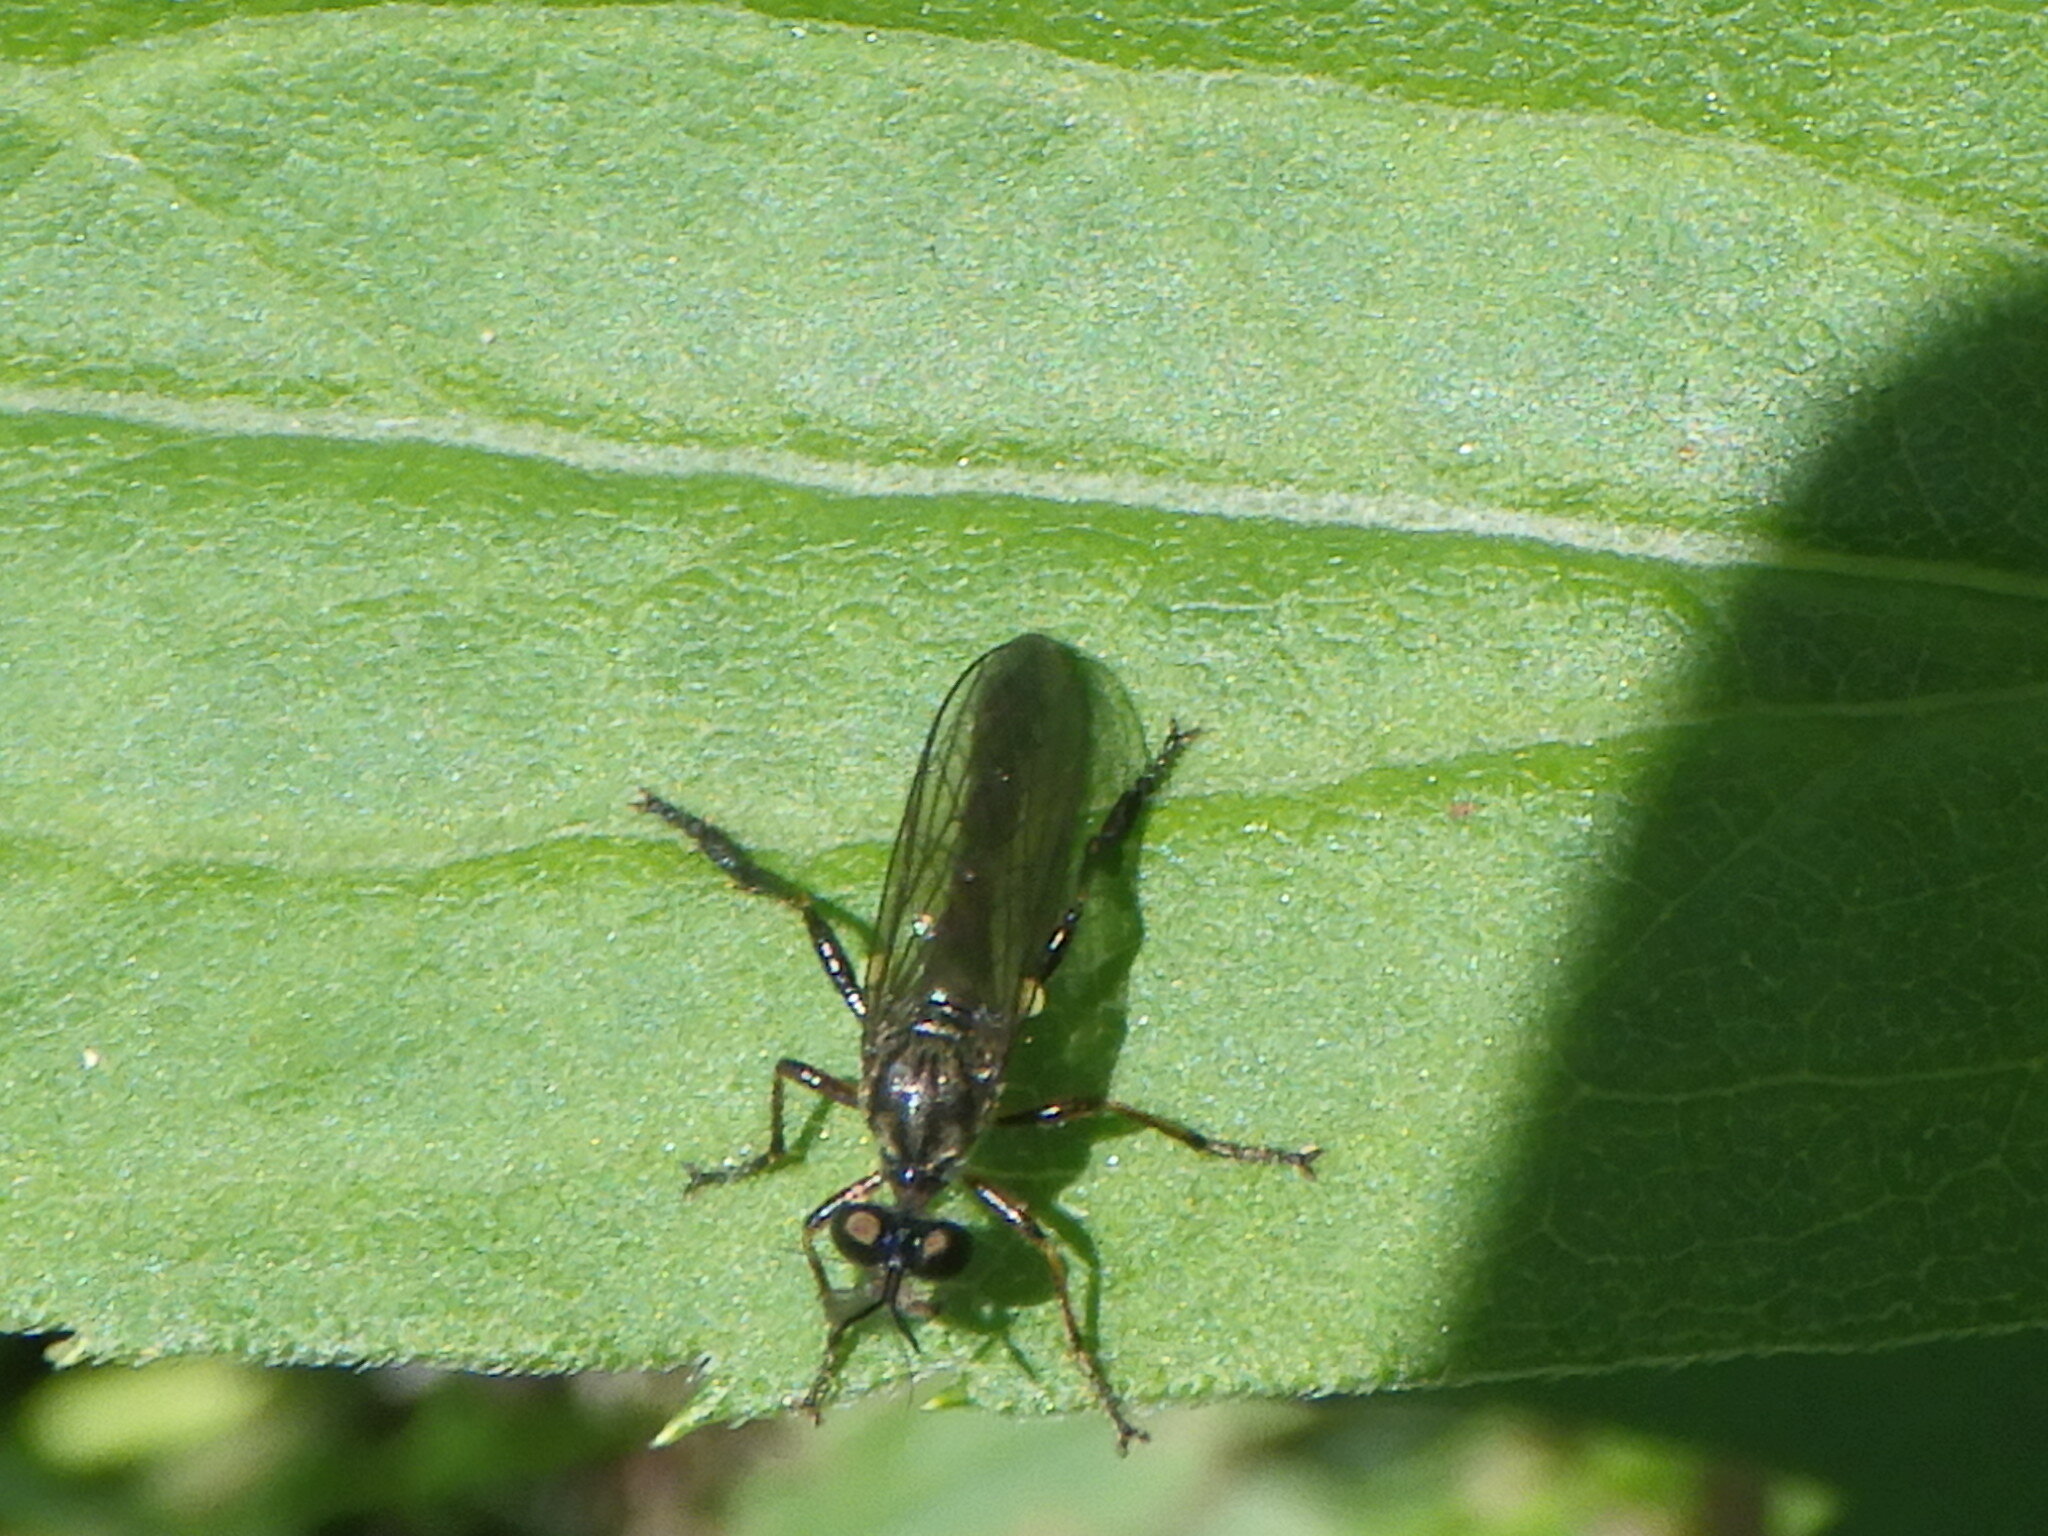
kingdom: Animalia
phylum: Arthropoda
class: Insecta
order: Diptera
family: Asilidae
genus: Dioctria
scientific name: Dioctria hyalipennis
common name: Stripe-legged robberfly
